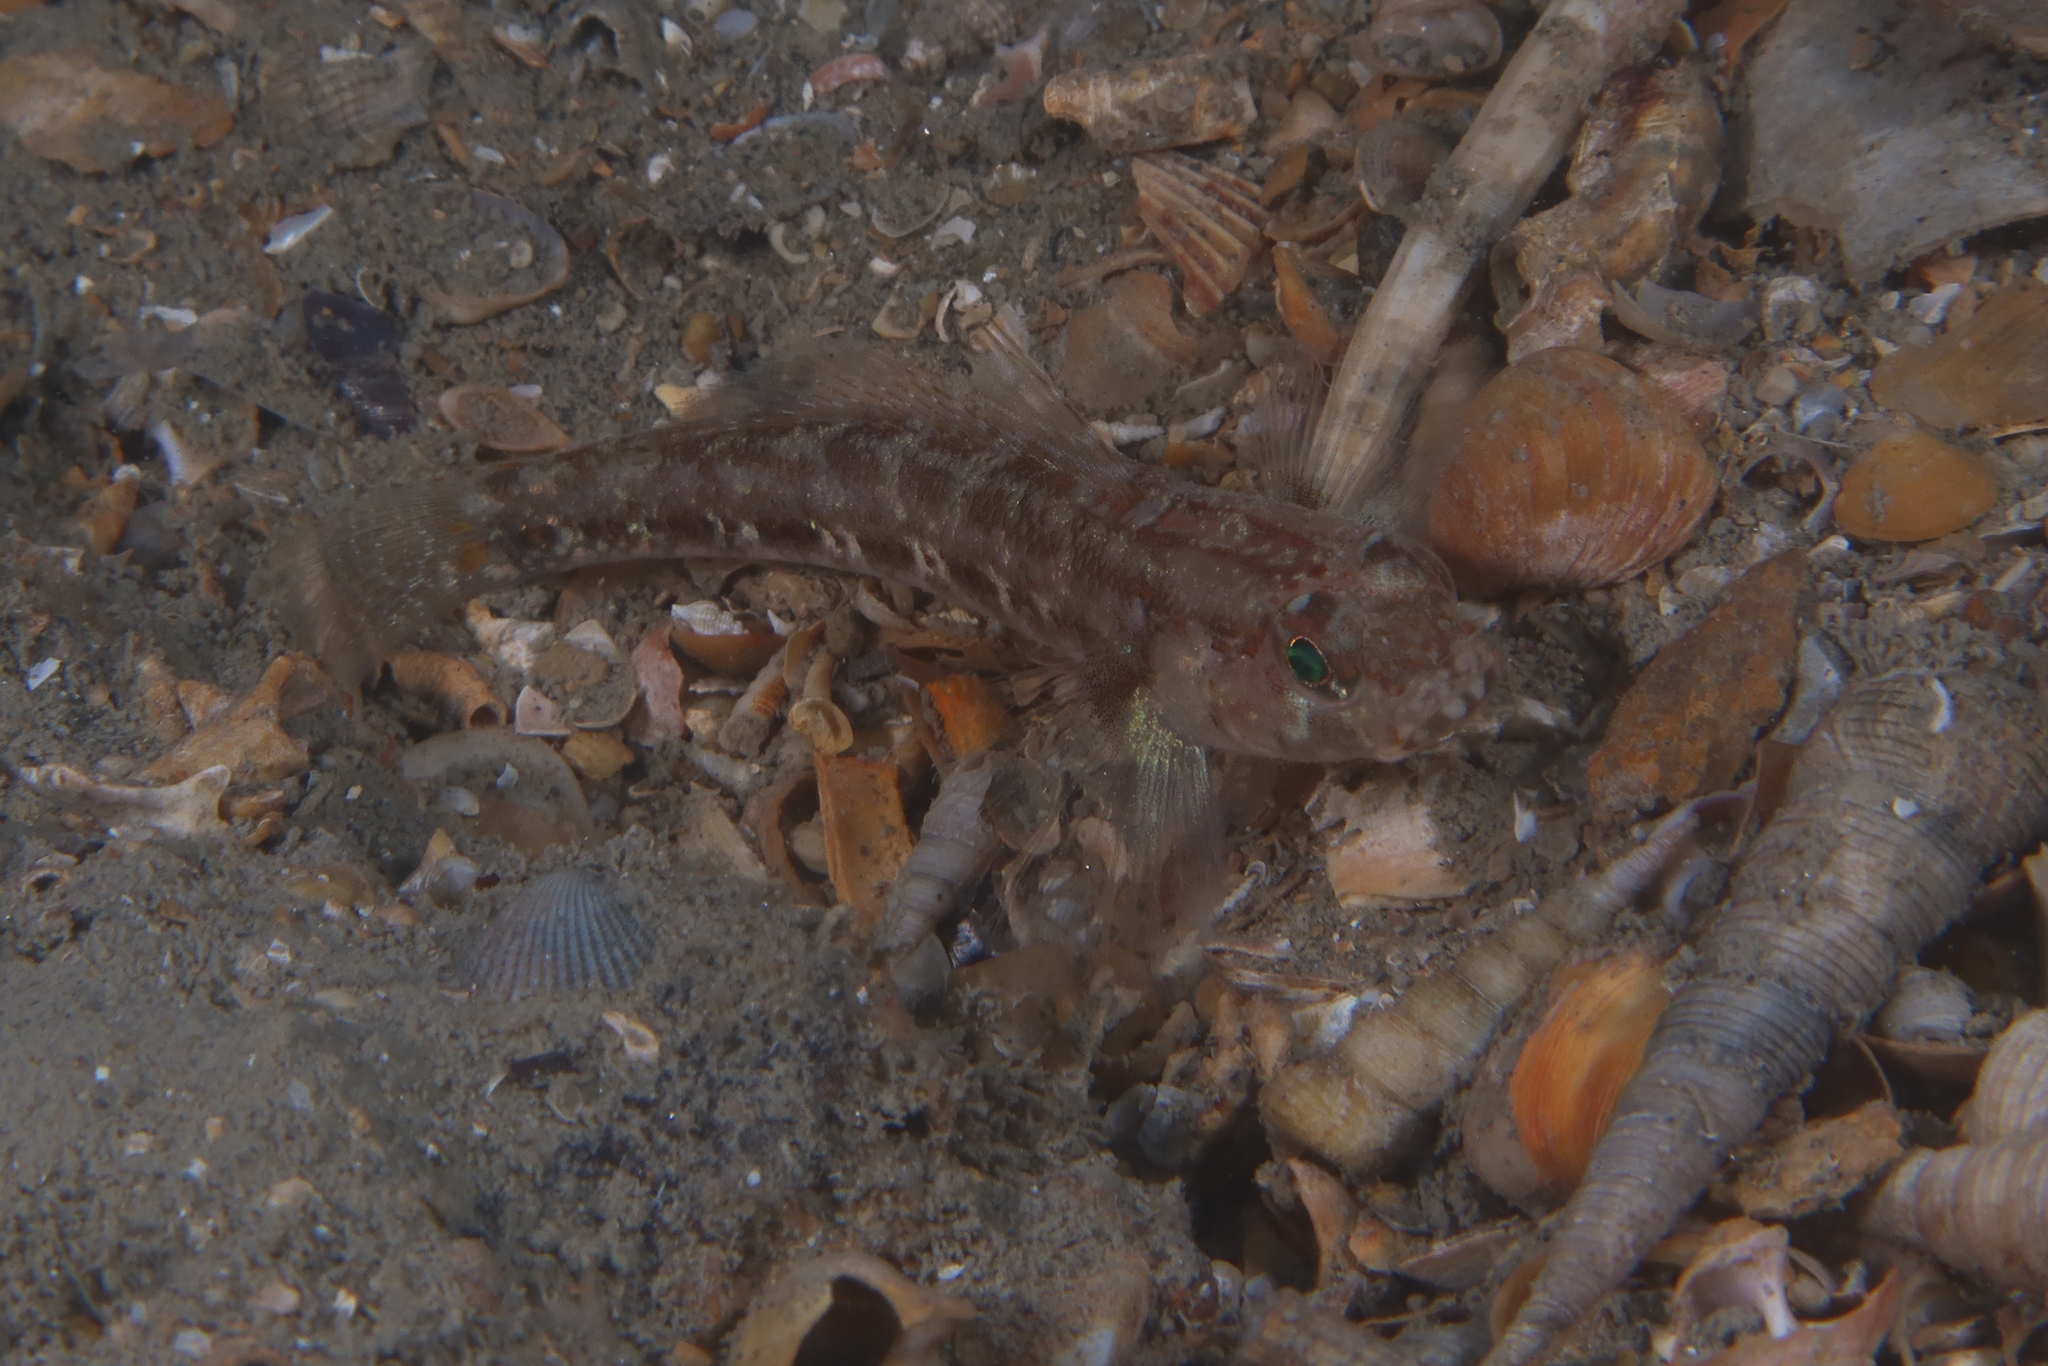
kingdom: Animalia
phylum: Chordata
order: Perciformes
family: Gobiidae
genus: Gobius
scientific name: Gobius xoriguer
